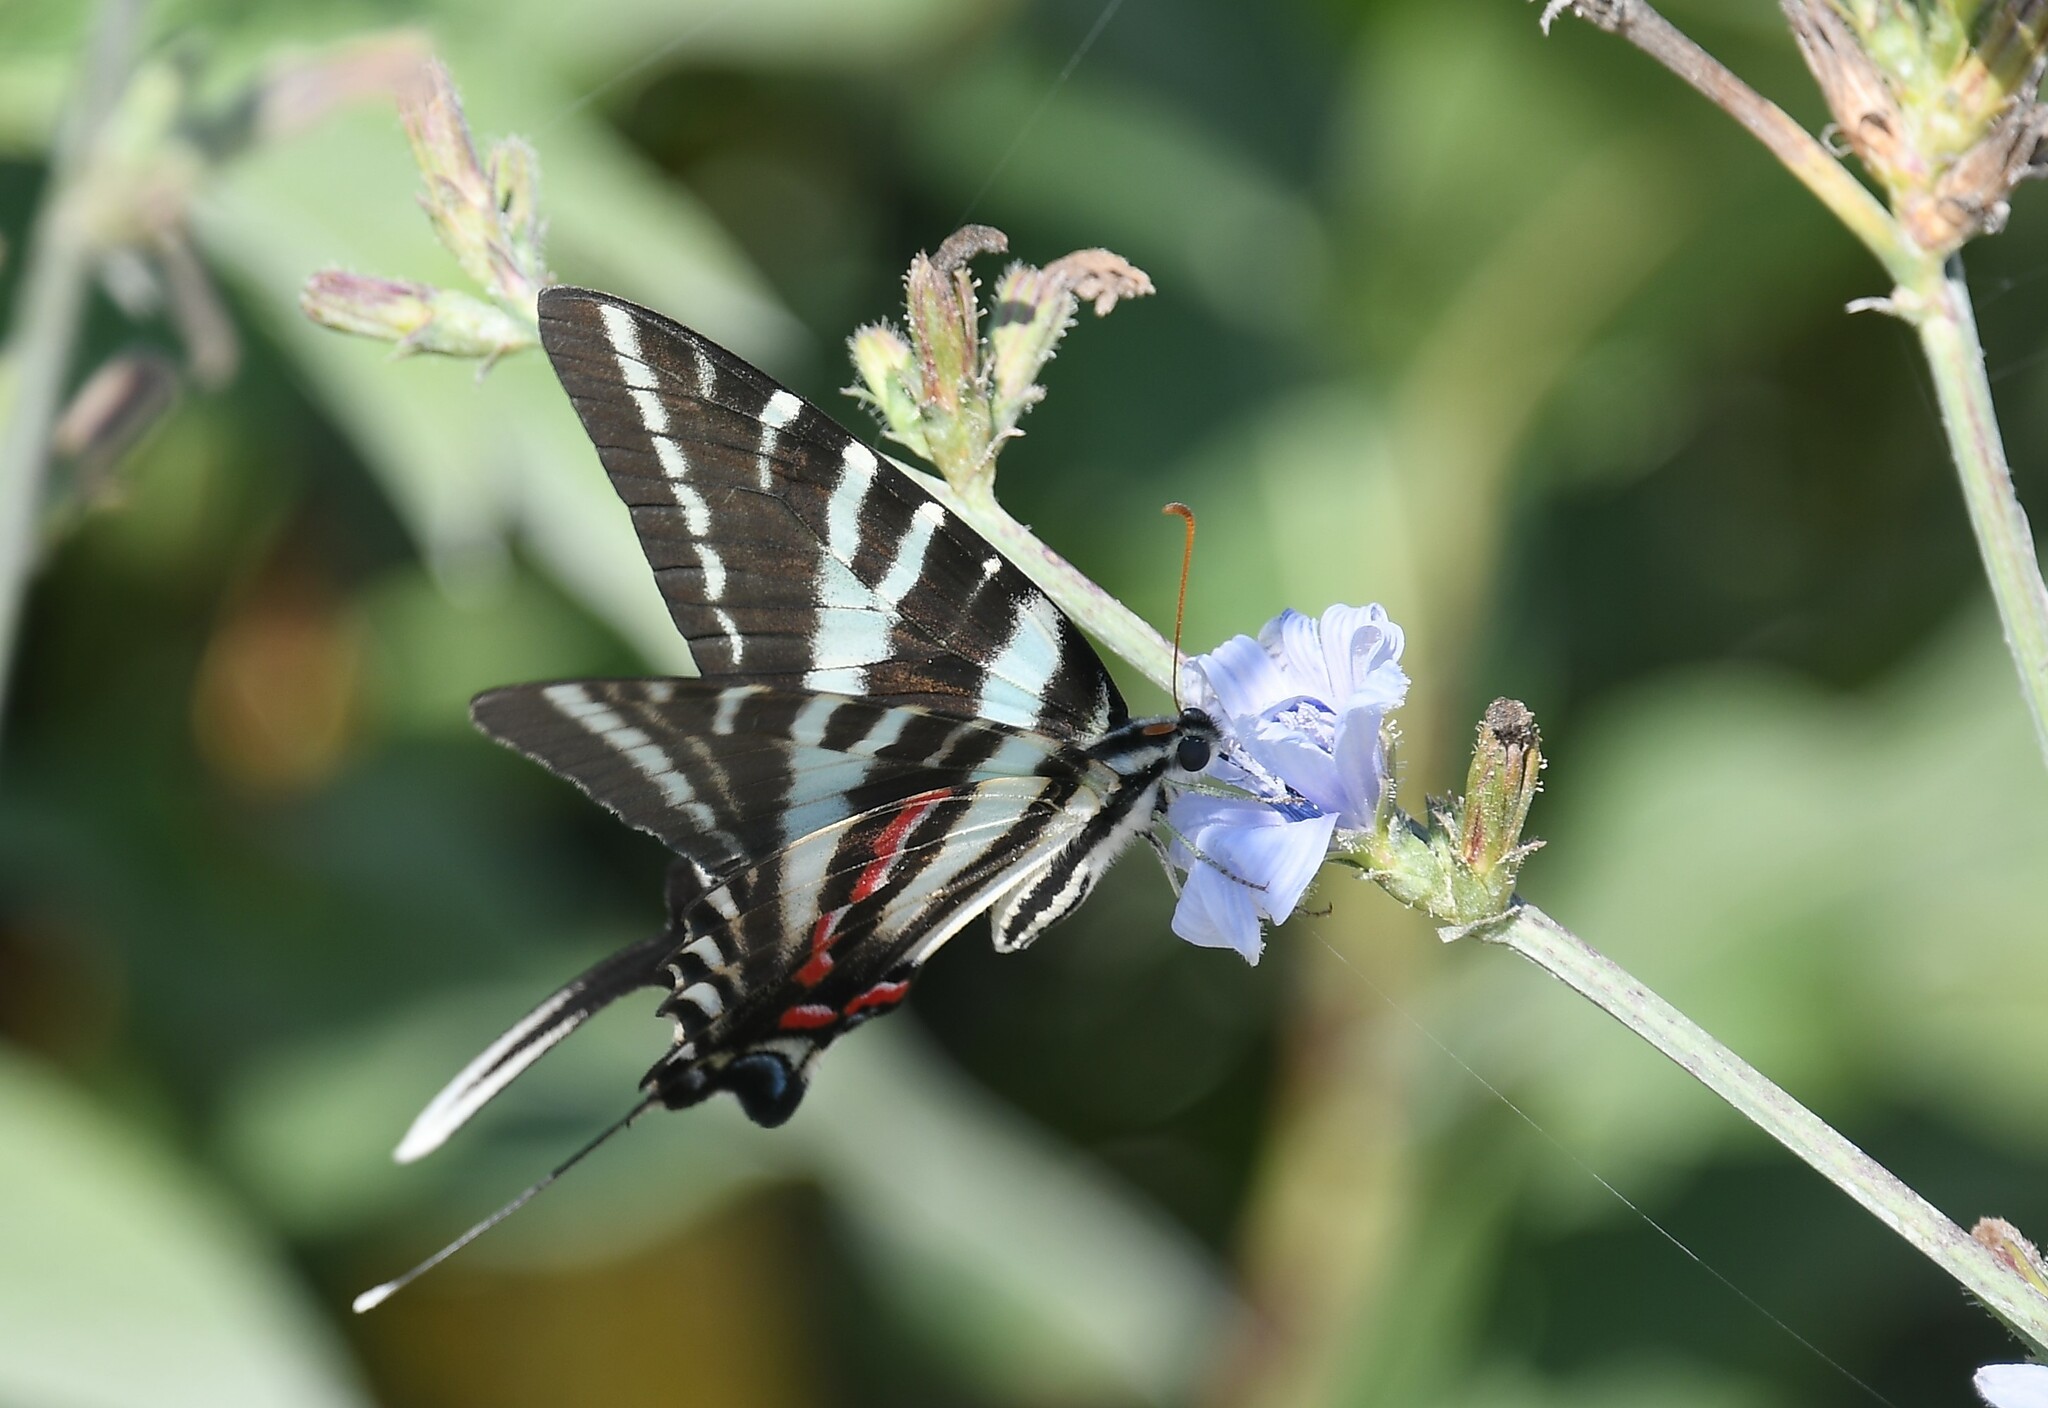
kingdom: Animalia
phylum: Arthropoda
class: Insecta
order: Lepidoptera
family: Papilionidae
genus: Protographium
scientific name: Protographium marcellus
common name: Zebra swallowtail
